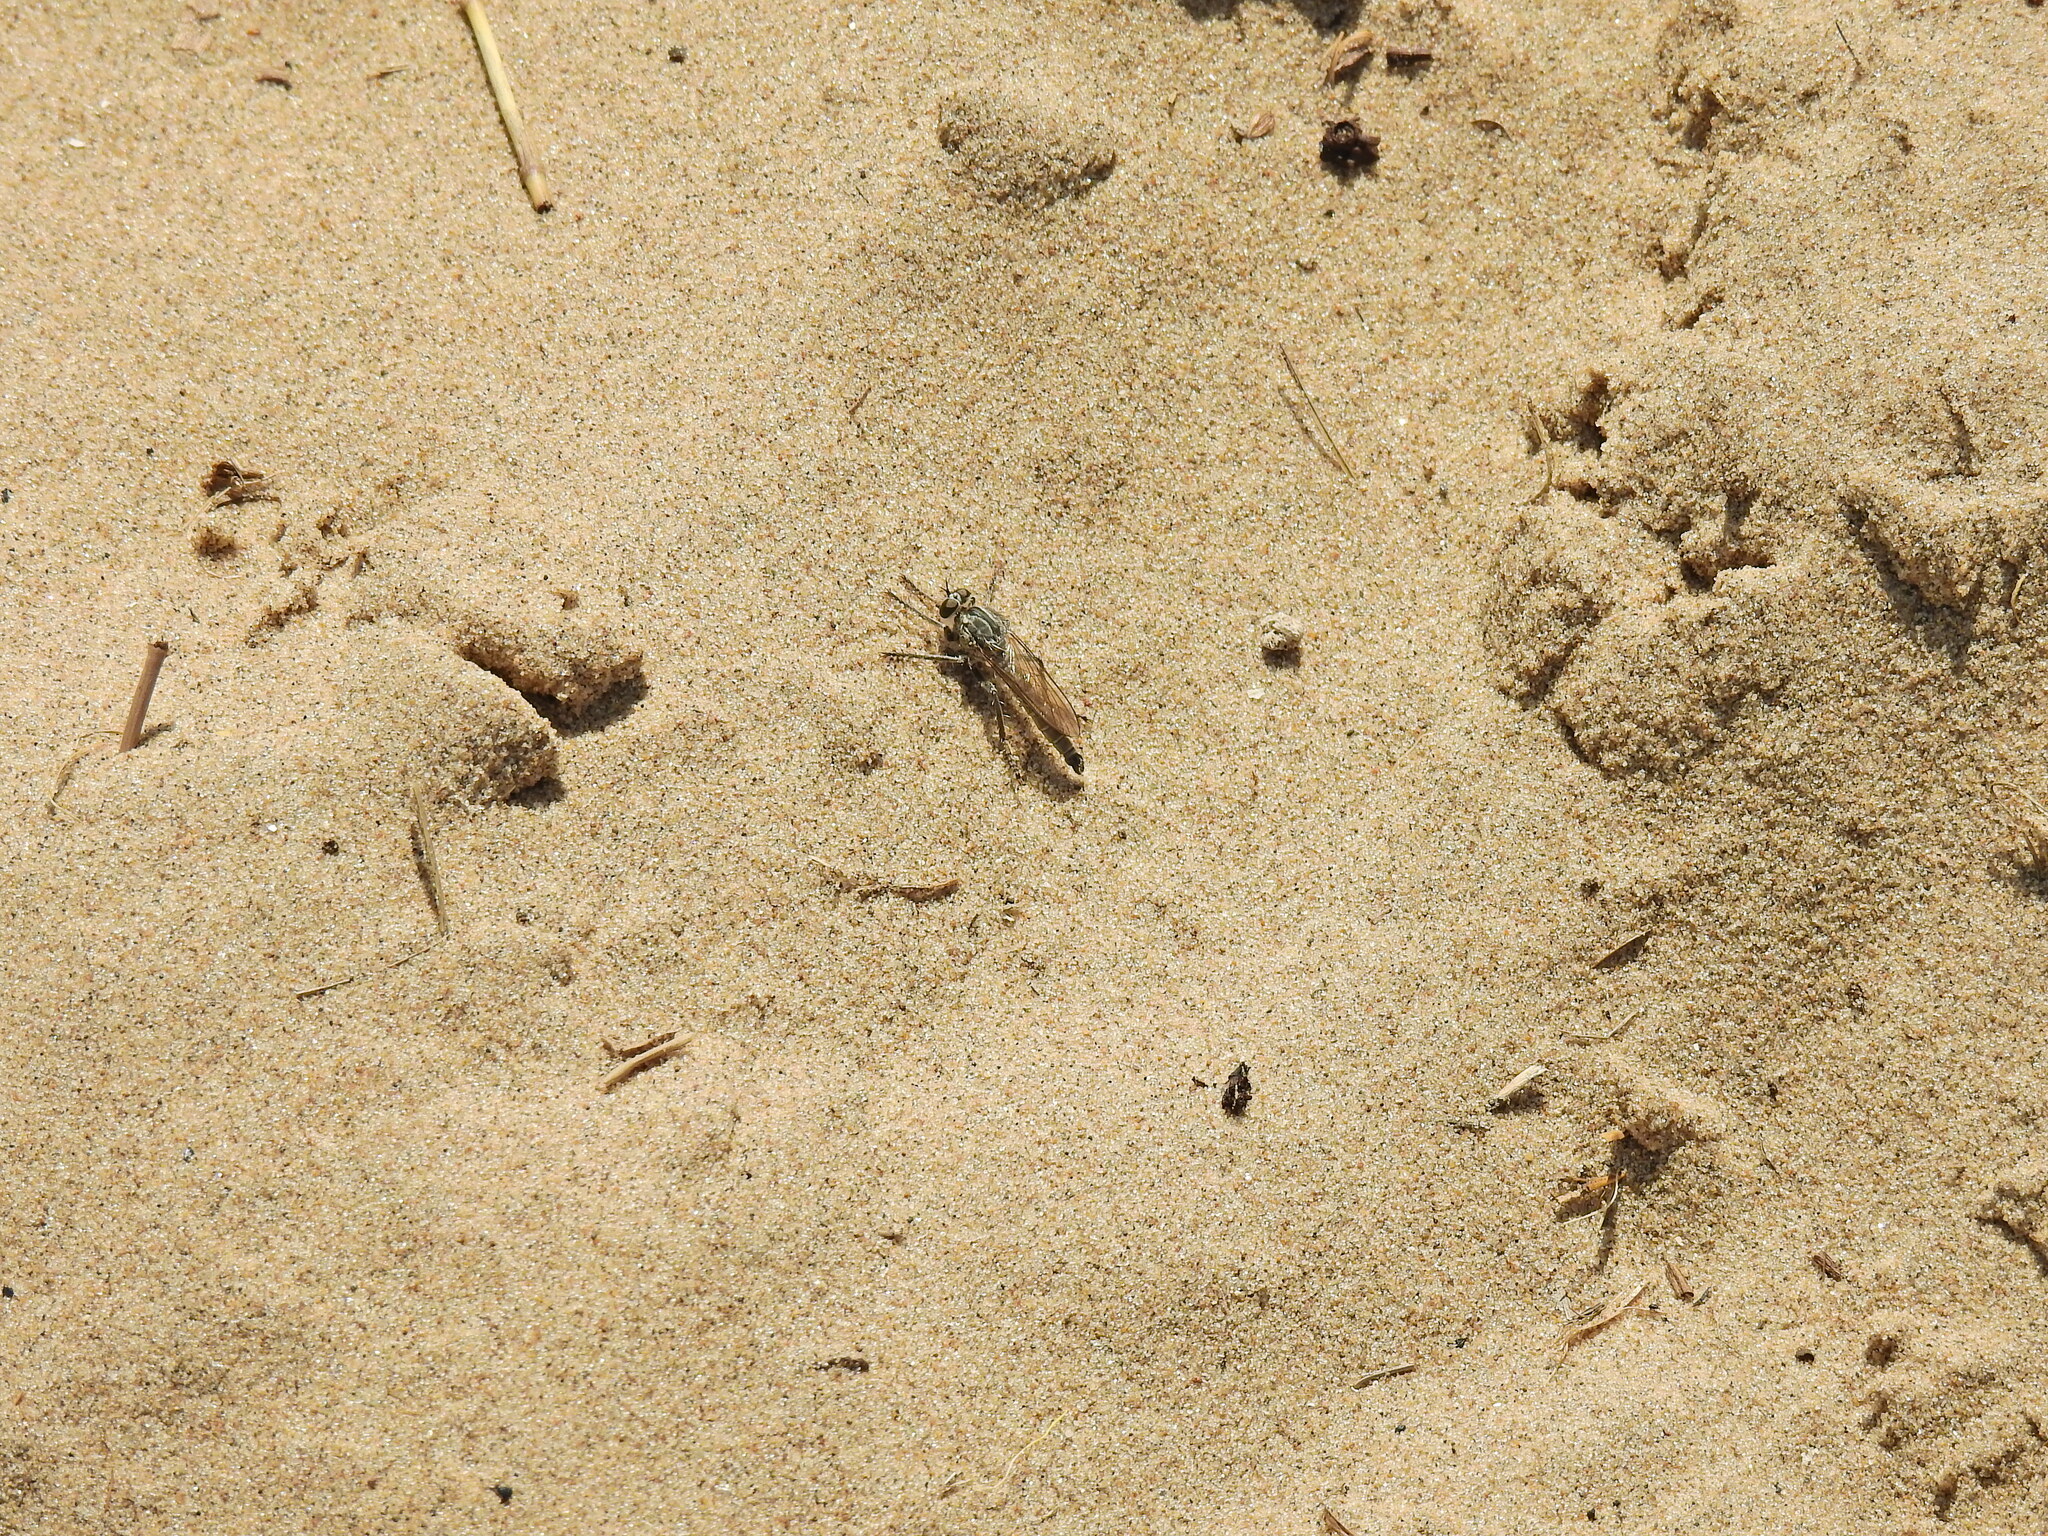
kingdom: Animalia
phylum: Arthropoda
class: Insecta
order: Diptera
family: Asilidae
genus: Philonicus
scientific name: Philonicus albiceps
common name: Dune robberfly
